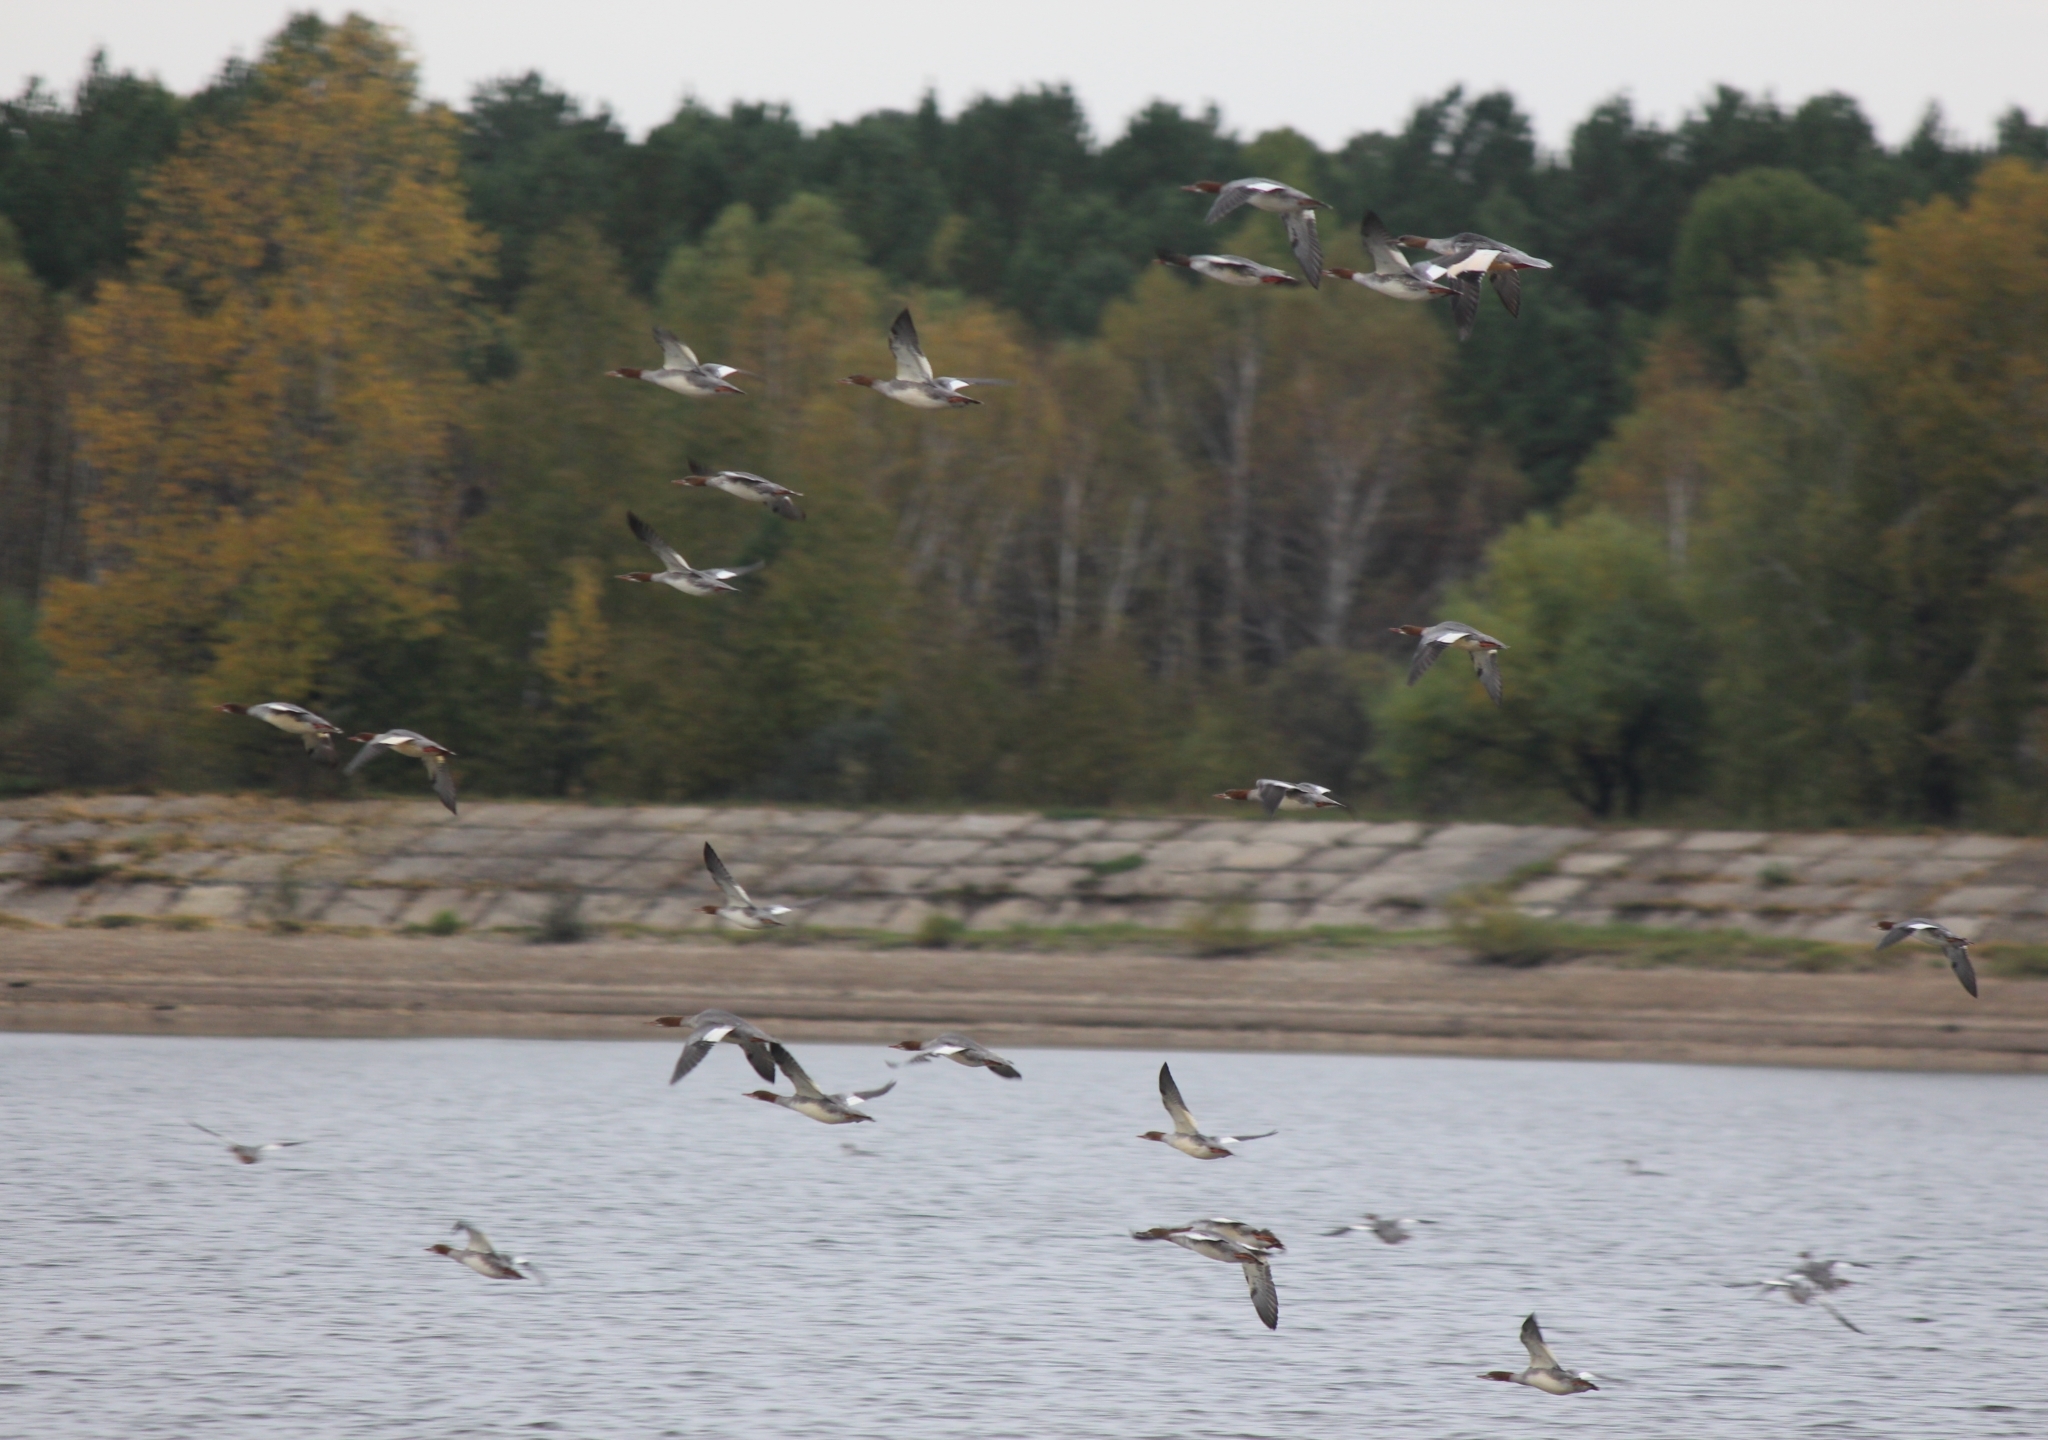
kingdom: Animalia
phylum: Chordata
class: Aves
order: Anseriformes
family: Anatidae
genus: Mergus
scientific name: Mergus merganser
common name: Common merganser
